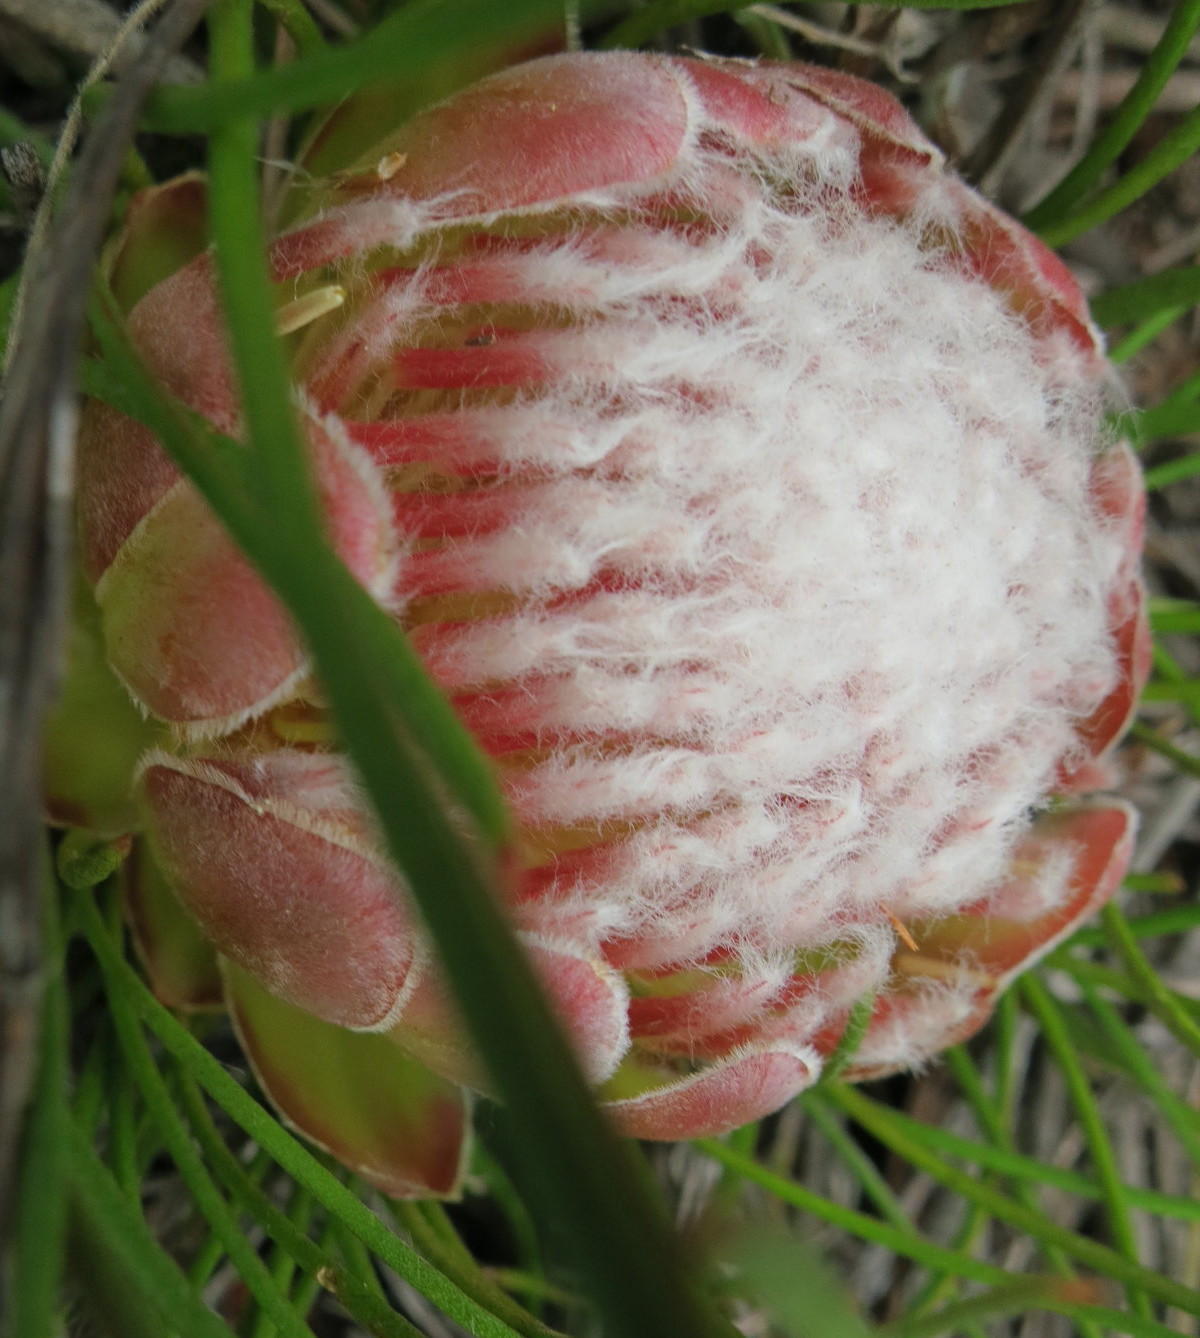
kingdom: Plantae
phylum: Tracheophyta
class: Magnoliopsida
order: Proteales
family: Proteaceae
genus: Protea
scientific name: Protea montana
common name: Swartberg sugarbush
